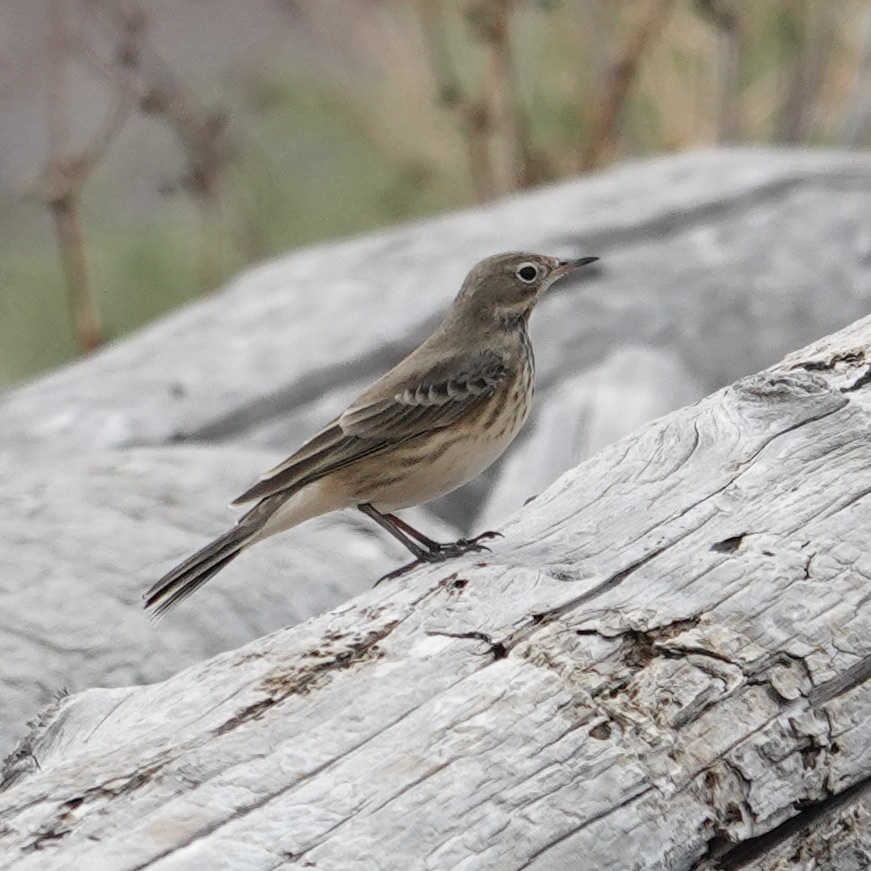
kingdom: Animalia
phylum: Chordata
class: Aves
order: Passeriformes
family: Motacillidae
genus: Anthus
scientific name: Anthus rubescens
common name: Buff-bellied pipit
